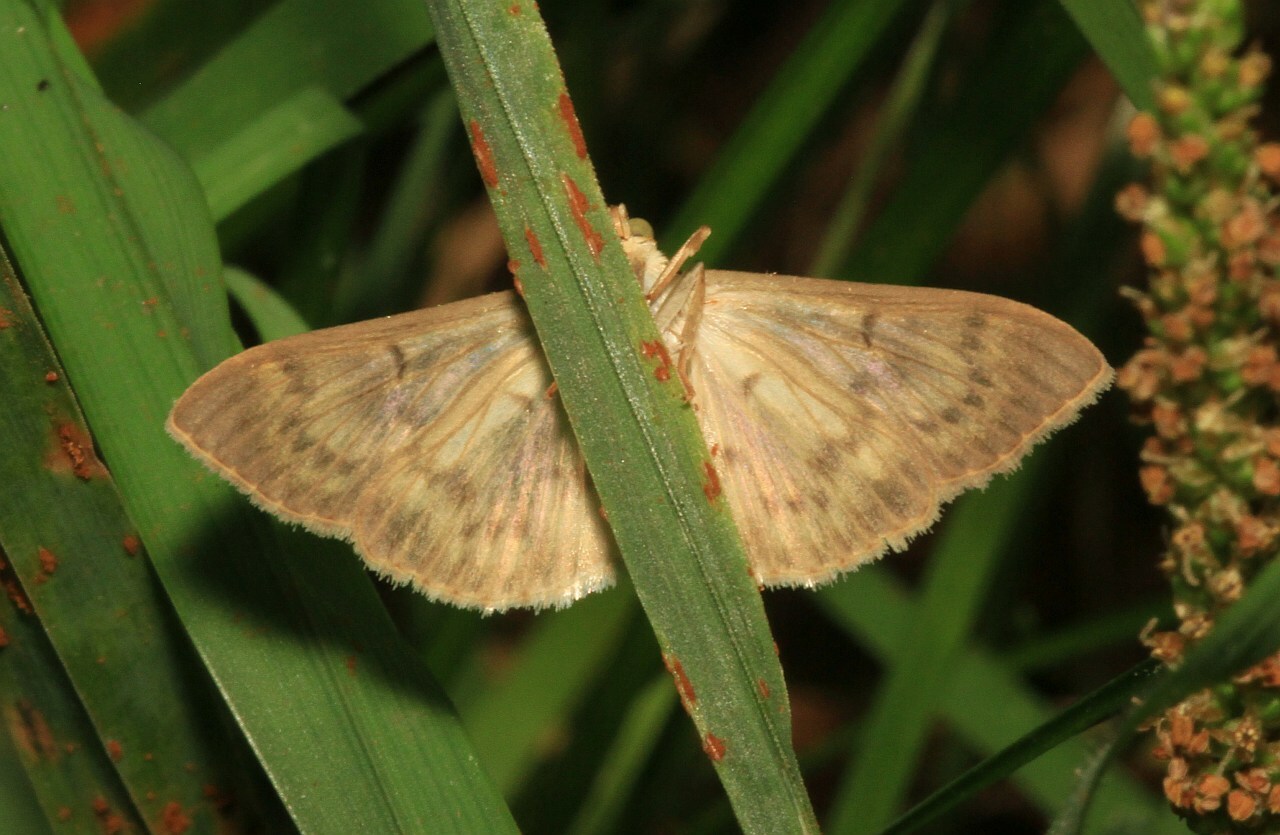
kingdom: Animalia
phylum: Arthropoda
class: Insecta
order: Lepidoptera
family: Crambidae
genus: Patania
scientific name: Patania ruralis
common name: Mother of pearl
